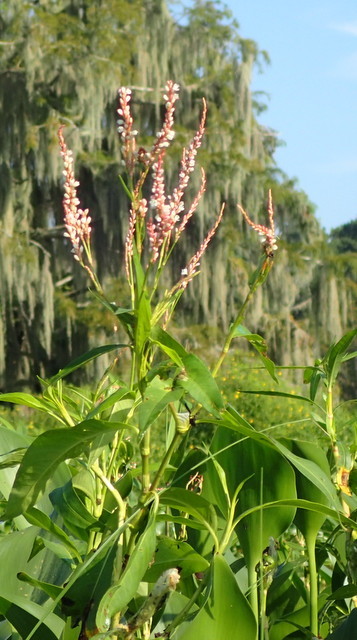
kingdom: Plantae
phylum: Tracheophyta
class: Magnoliopsida
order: Caryophyllales
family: Polygonaceae
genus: Persicaria
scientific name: Persicaria lapathifolia
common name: Curlytop knotweed
